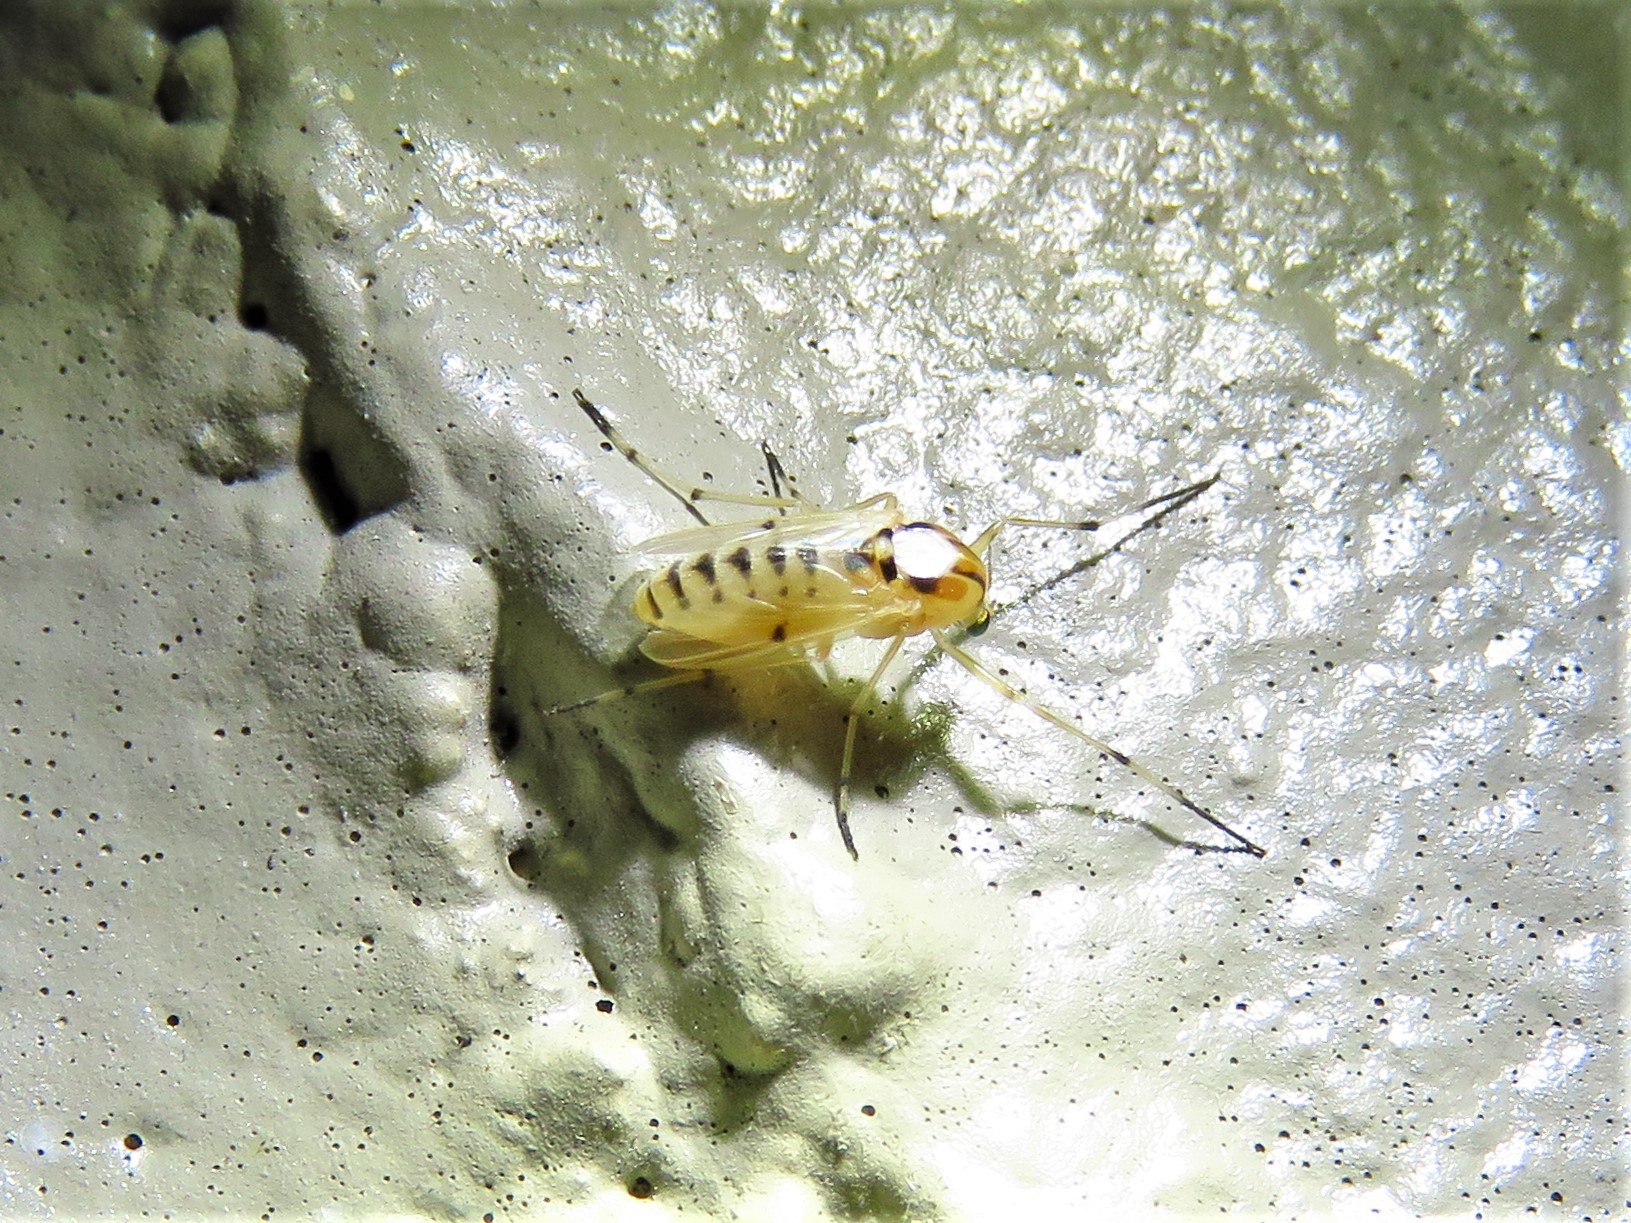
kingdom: Animalia
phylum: Arthropoda
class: Insecta
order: Diptera
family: Chironomidae
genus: Coelotanypus
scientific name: Coelotanypus concinnus
